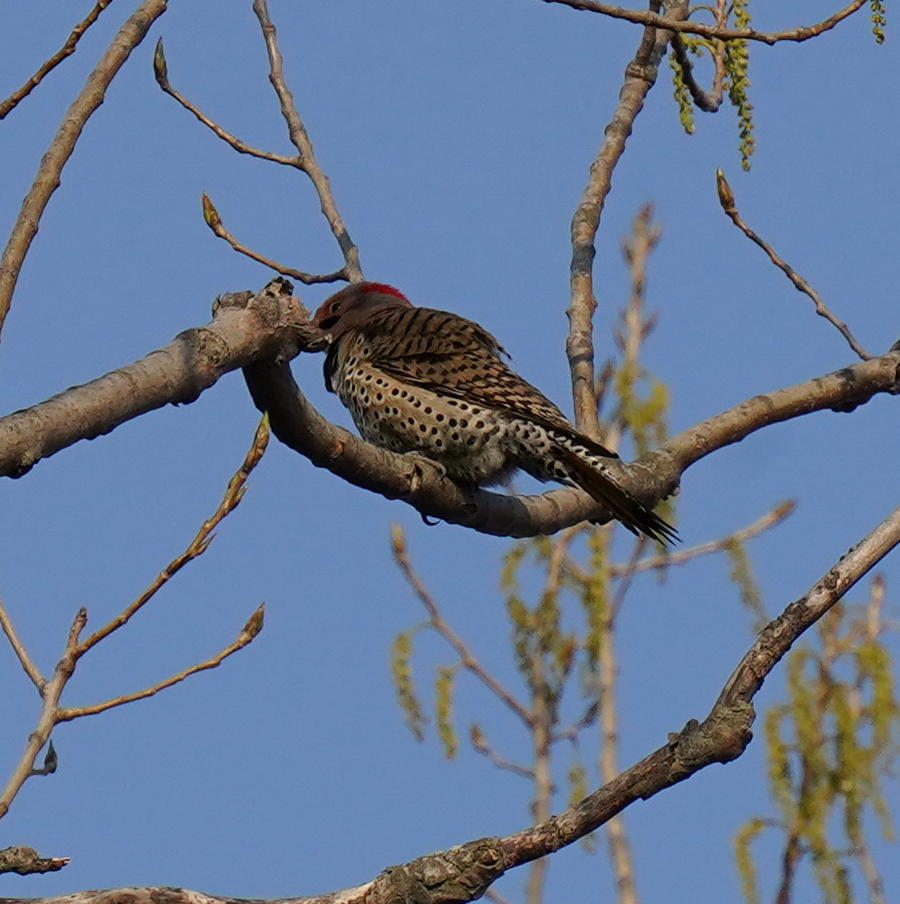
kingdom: Animalia
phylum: Chordata
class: Aves
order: Piciformes
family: Picidae
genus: Colaptes
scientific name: Colaptes auratus
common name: Northern flicker
